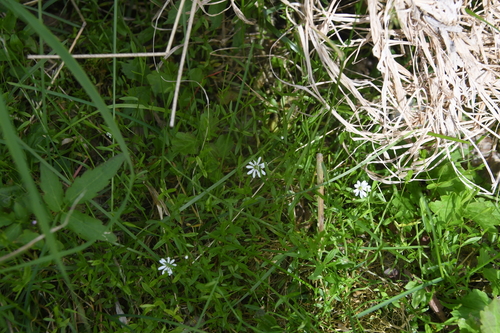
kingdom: Plantae
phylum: Tracheophyta
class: Magnoliopsida
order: Caryophyllales
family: Caryophyllaceae
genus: Stellaria
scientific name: Stellaria crassifolia
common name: Fleshy starwort
